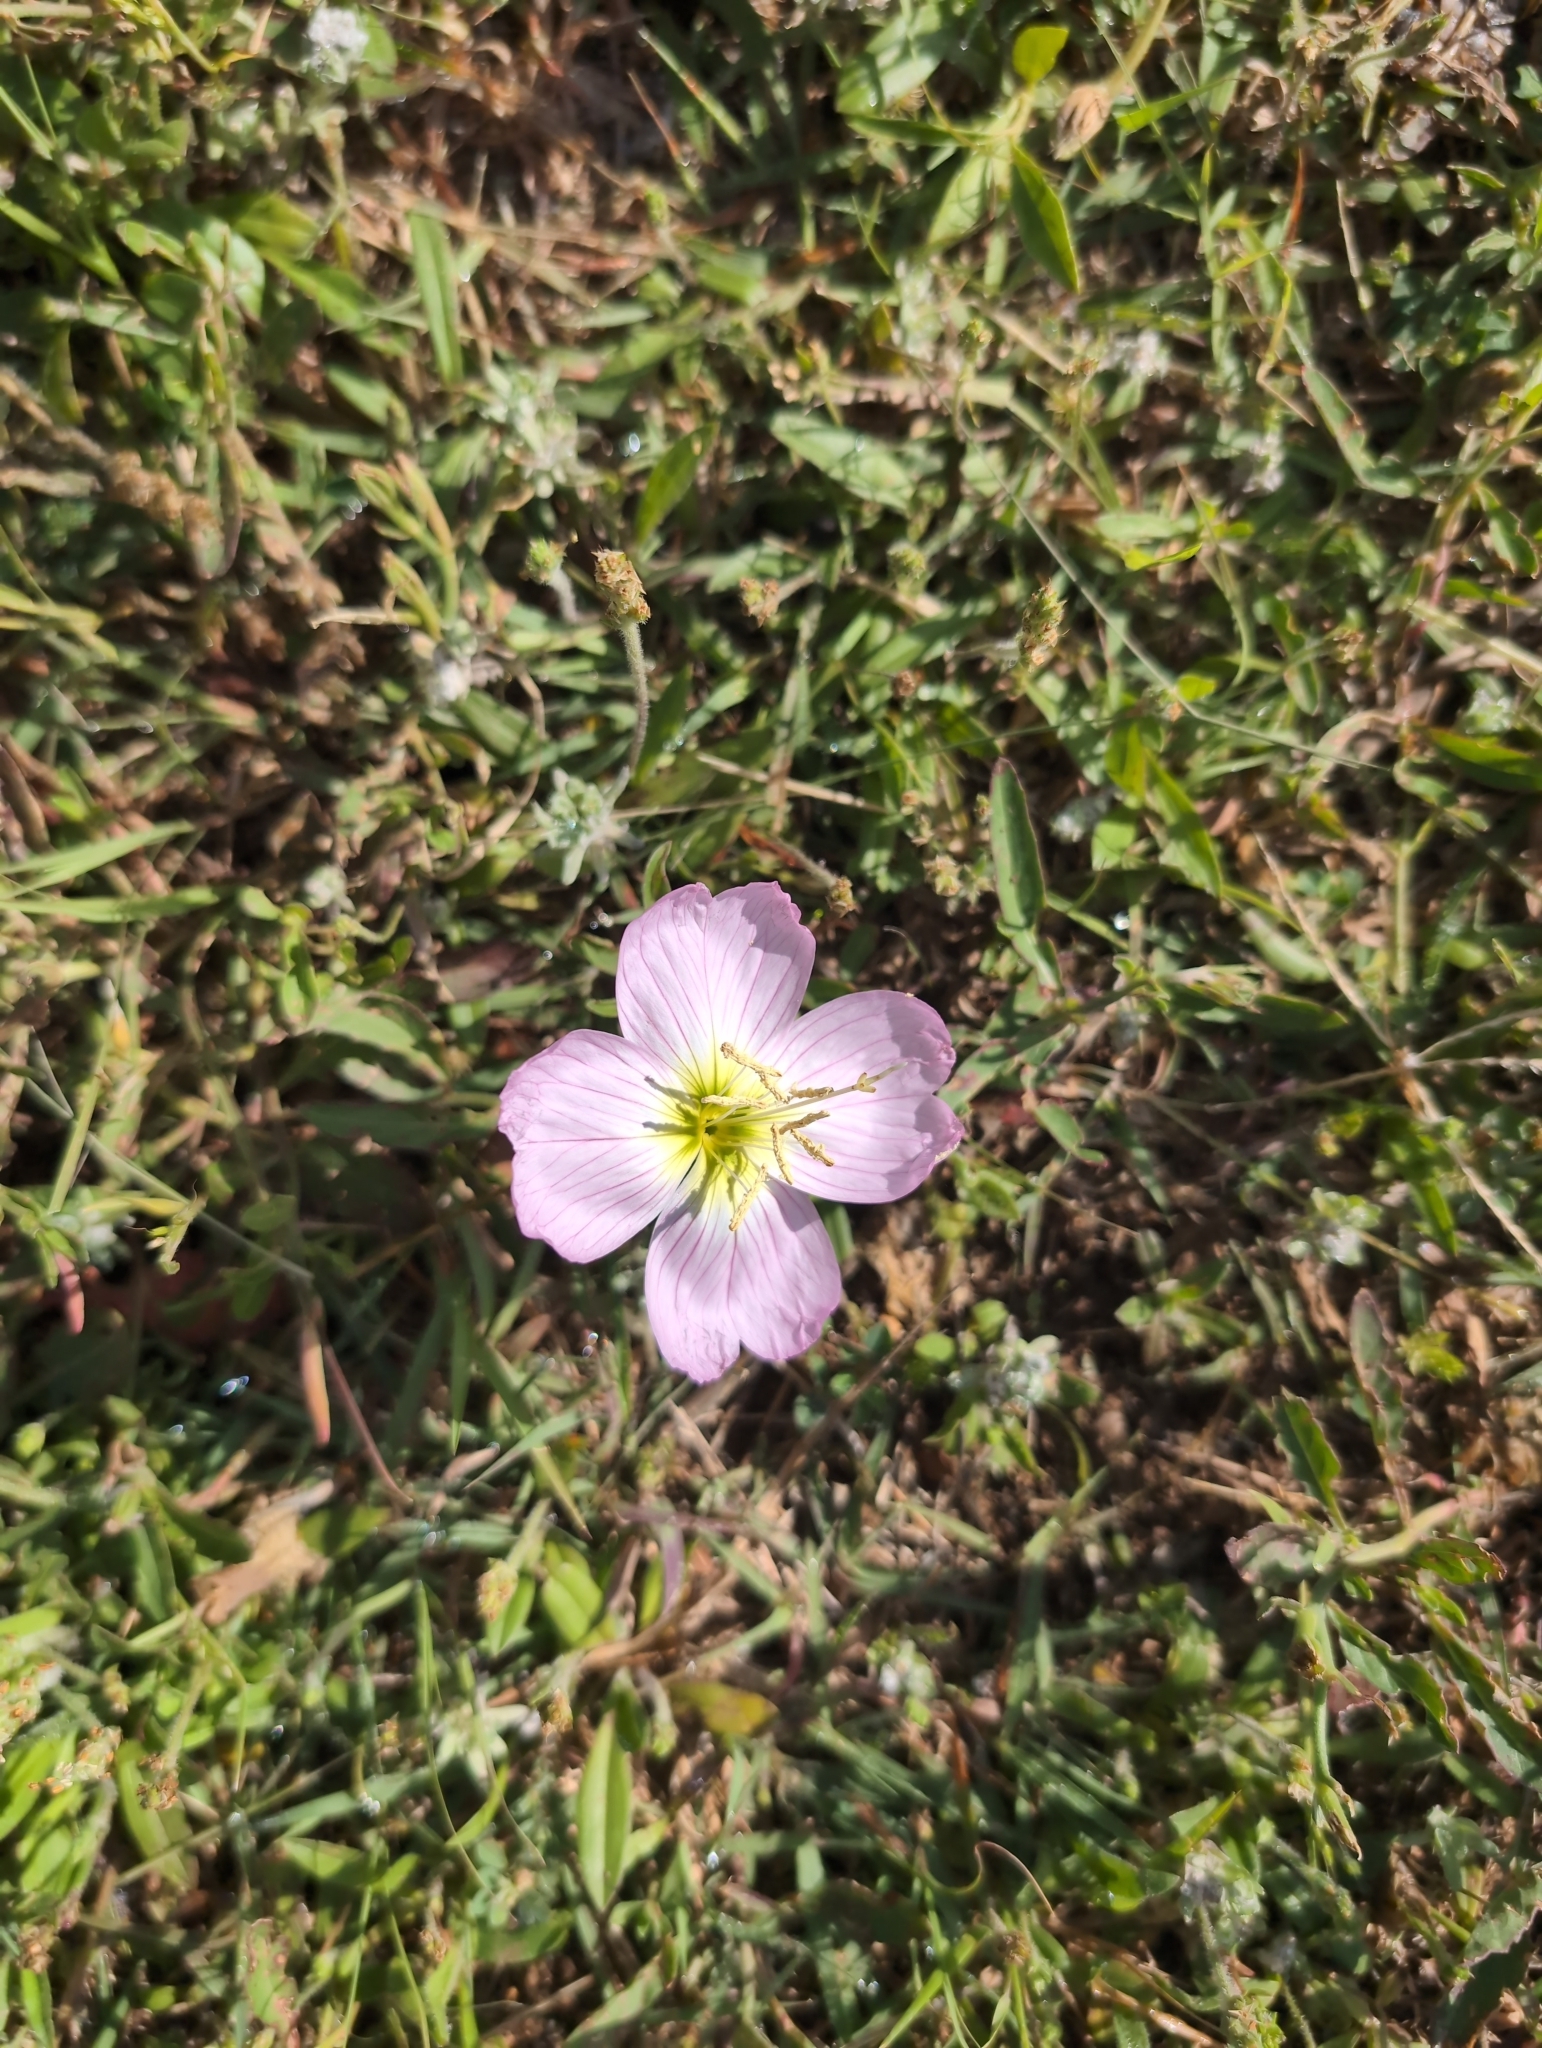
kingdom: Plantae
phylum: Tracheophyta
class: Magnoliopsida
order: Myrtales
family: Onagraceae
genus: Oenothera
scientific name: Oenothera speciosa
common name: White evening-primrose
